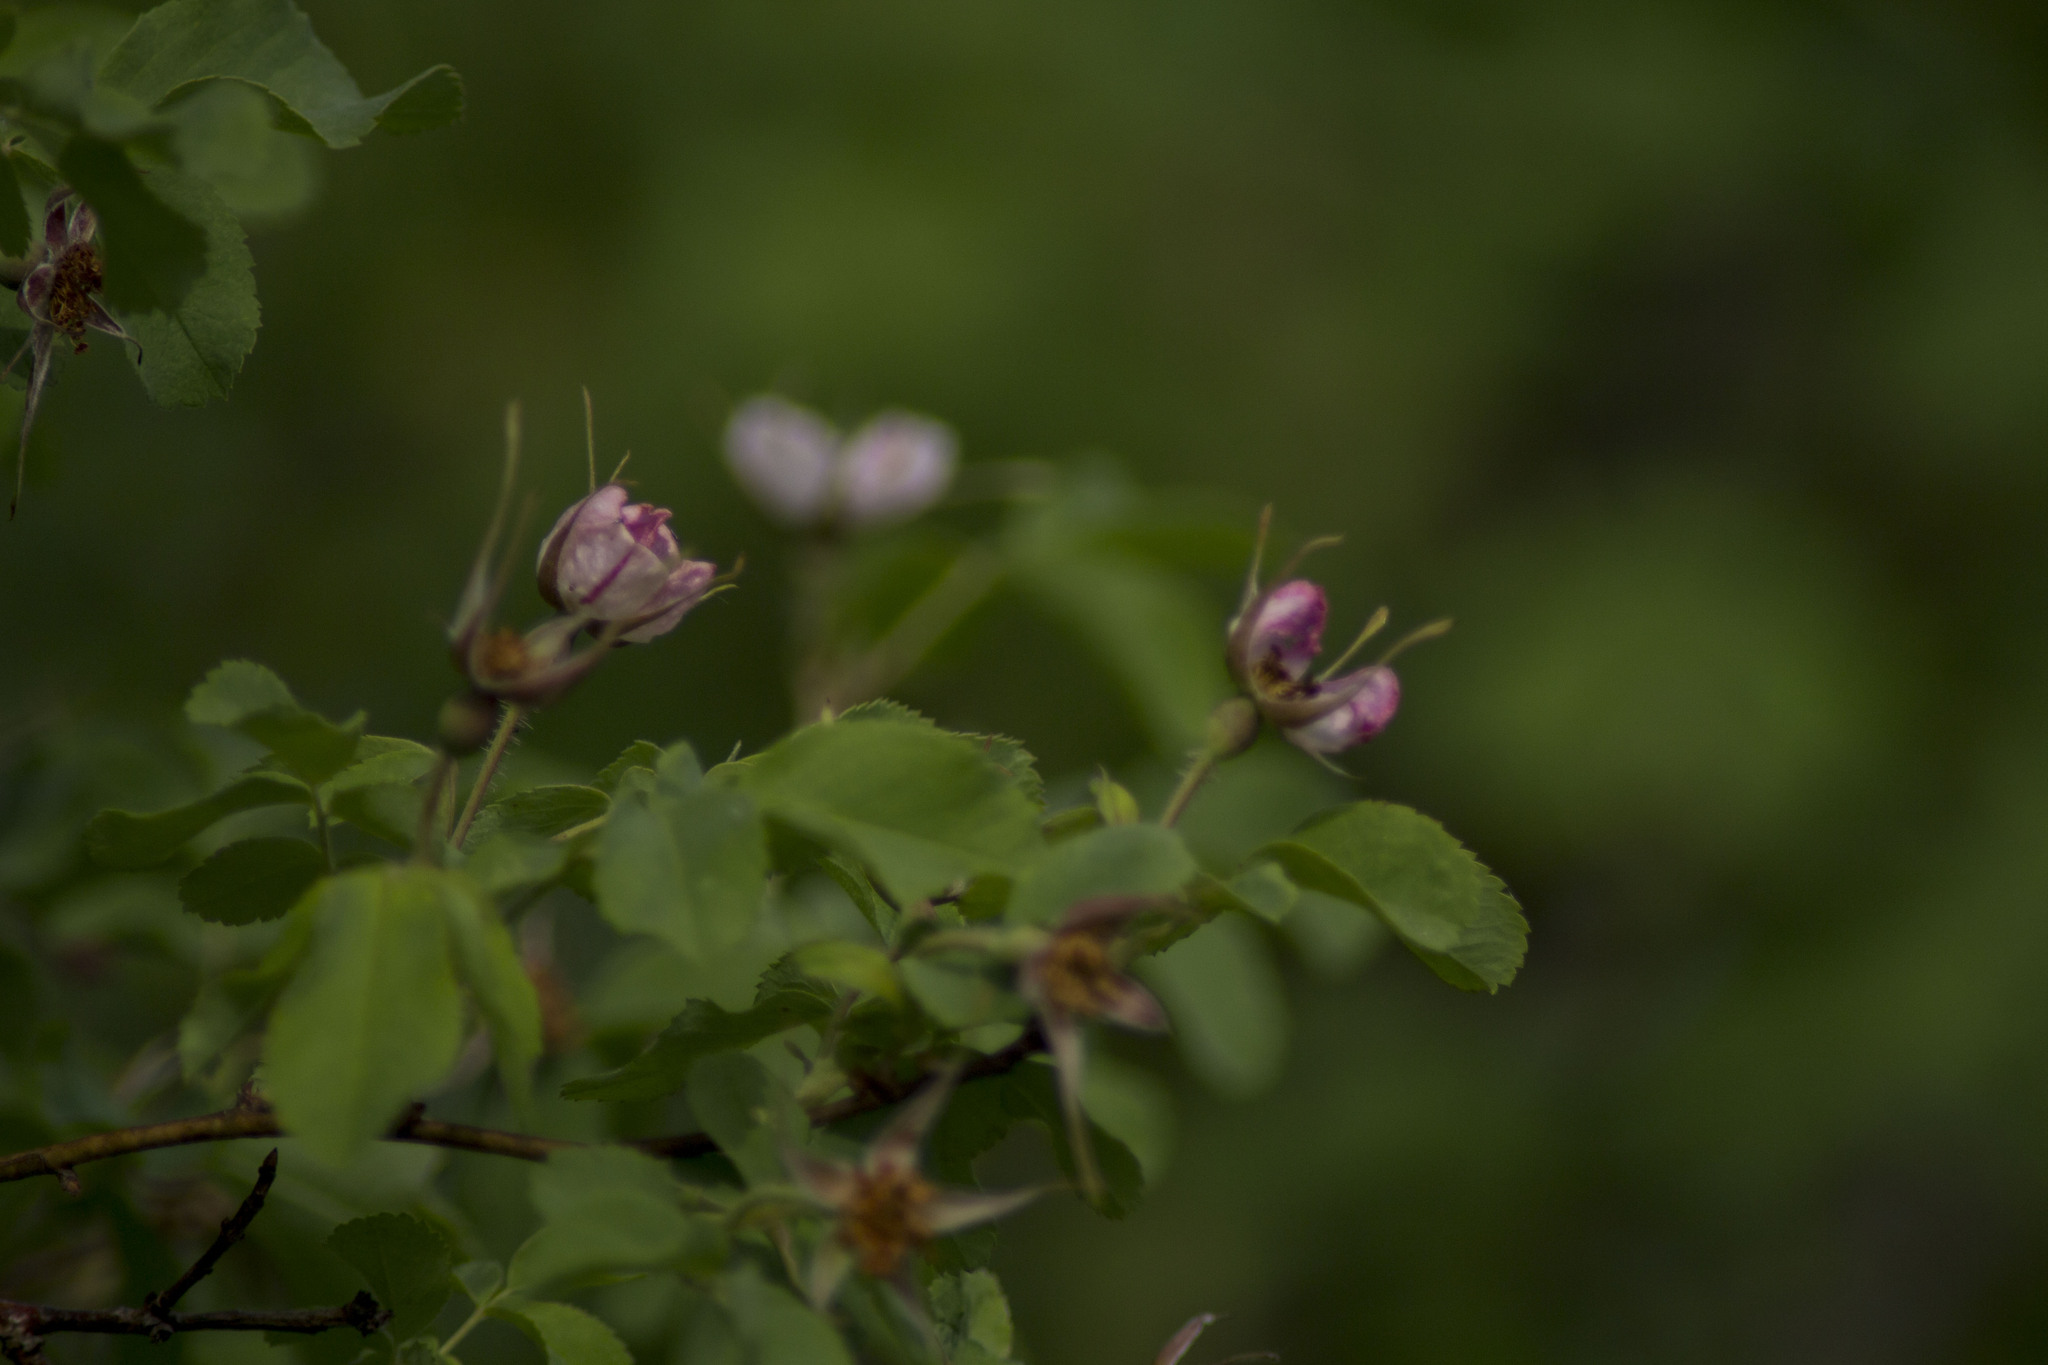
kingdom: Plantae
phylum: Tracheophyta
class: Magnoliopsida
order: Rosales
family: Rosaceae
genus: Rosa
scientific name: Rosa acicularis
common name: Prickly rose
